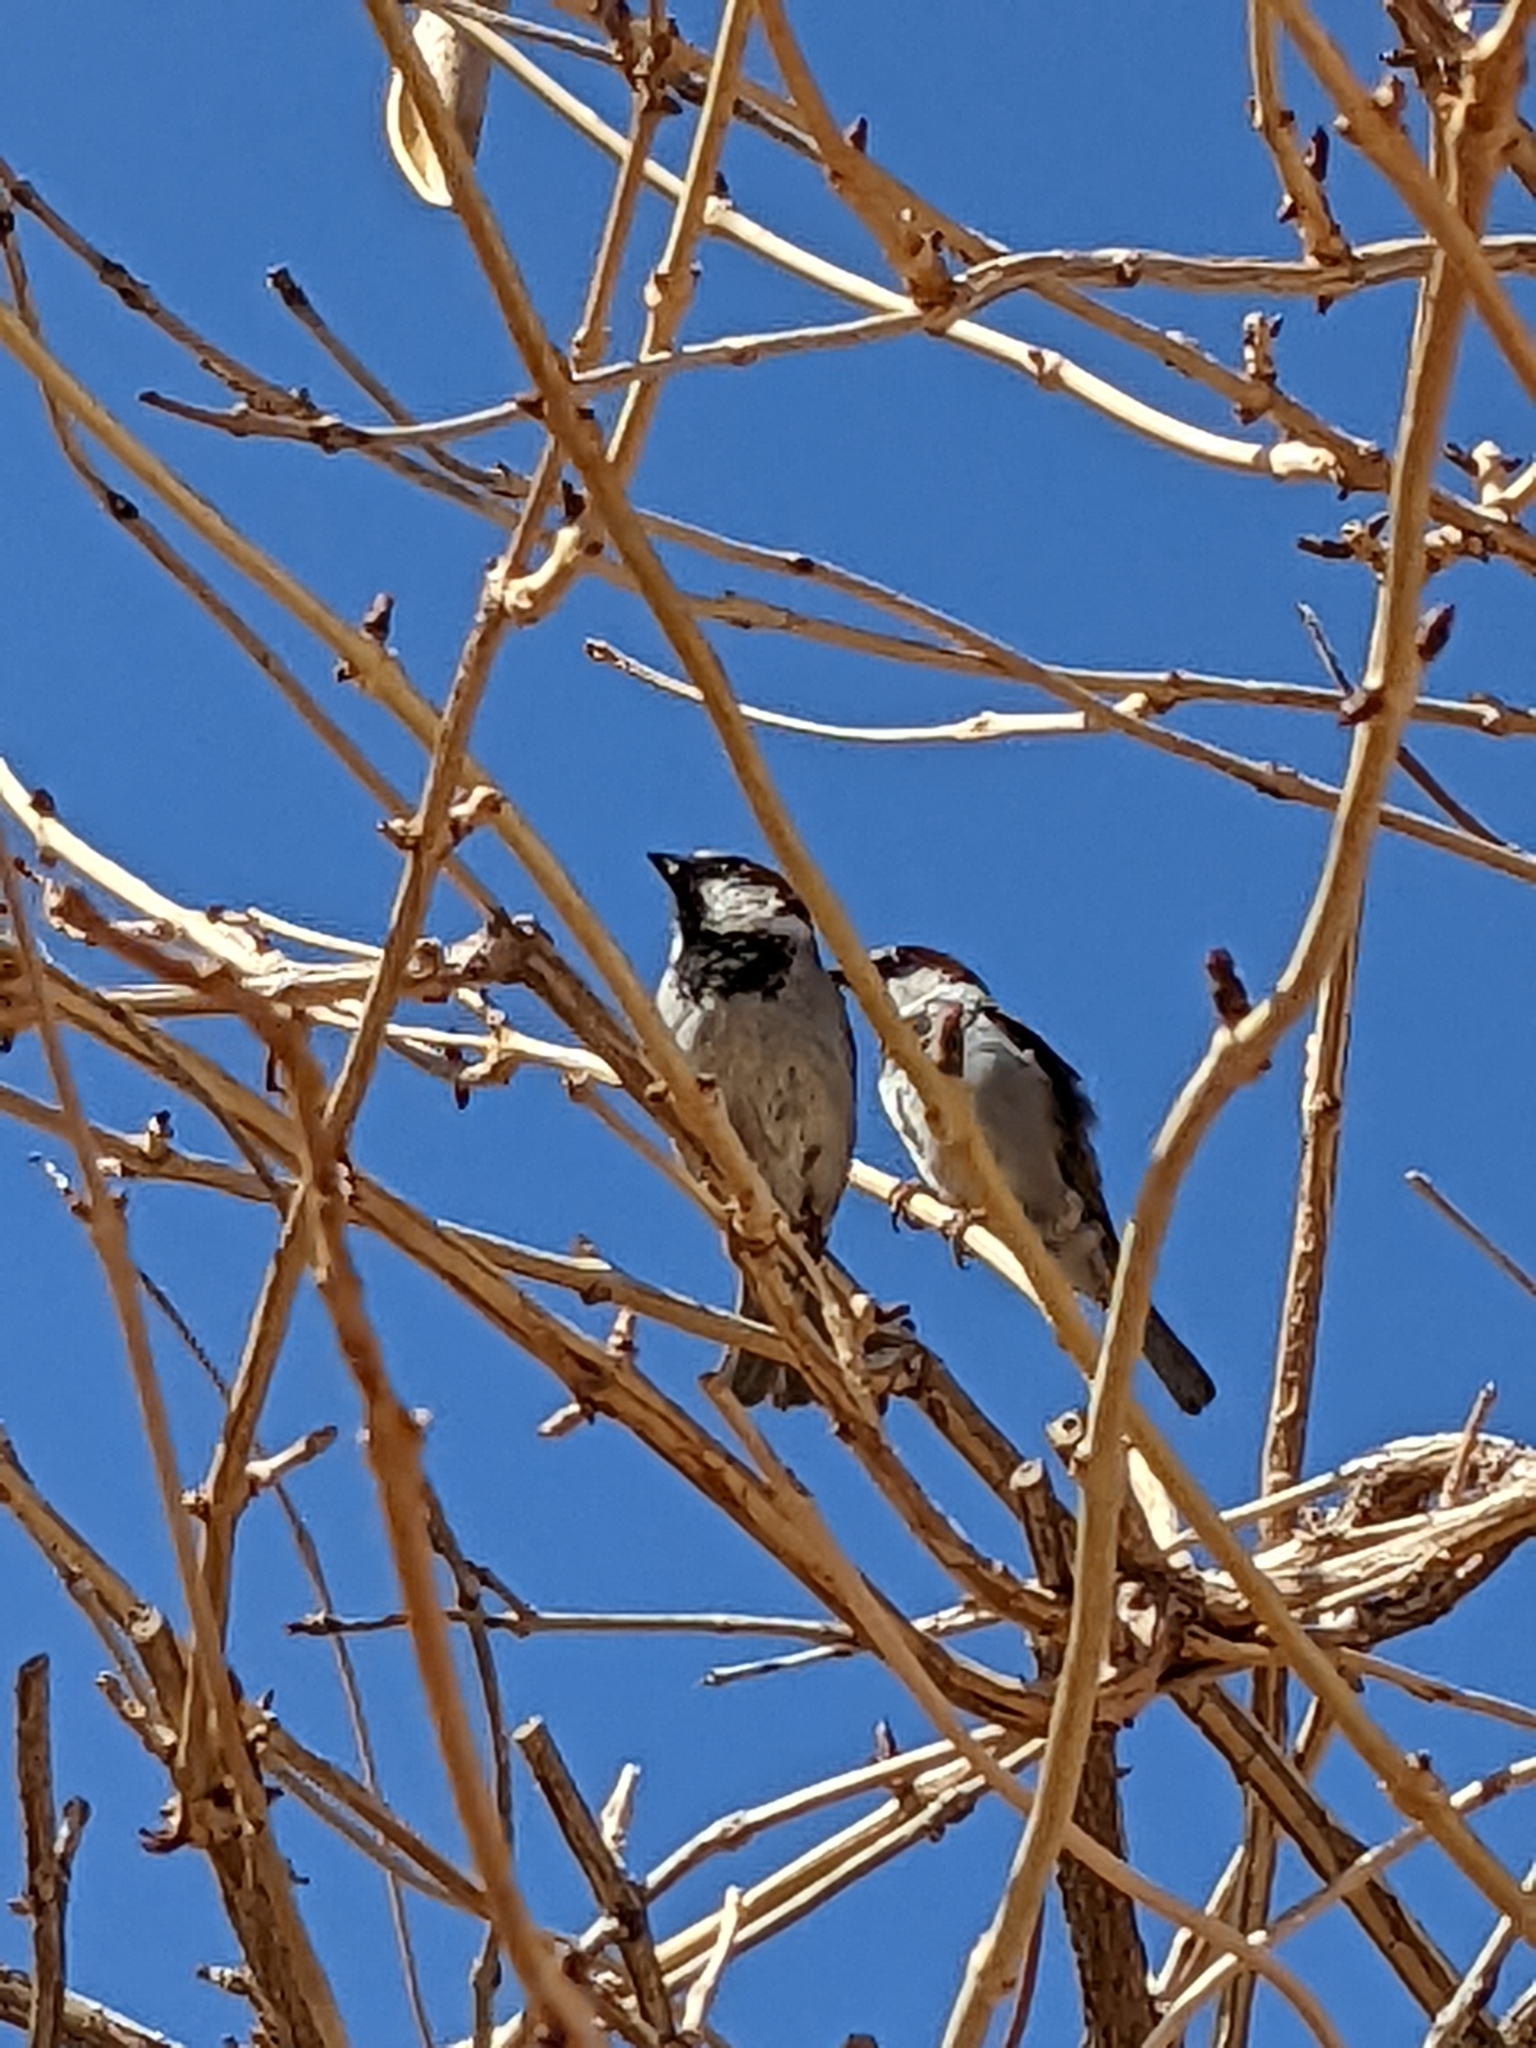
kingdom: Animalia
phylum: Chordata
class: Aves
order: Passeriformes
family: Passeridae
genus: Passer
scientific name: Passer domesticus
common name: House sparrow
